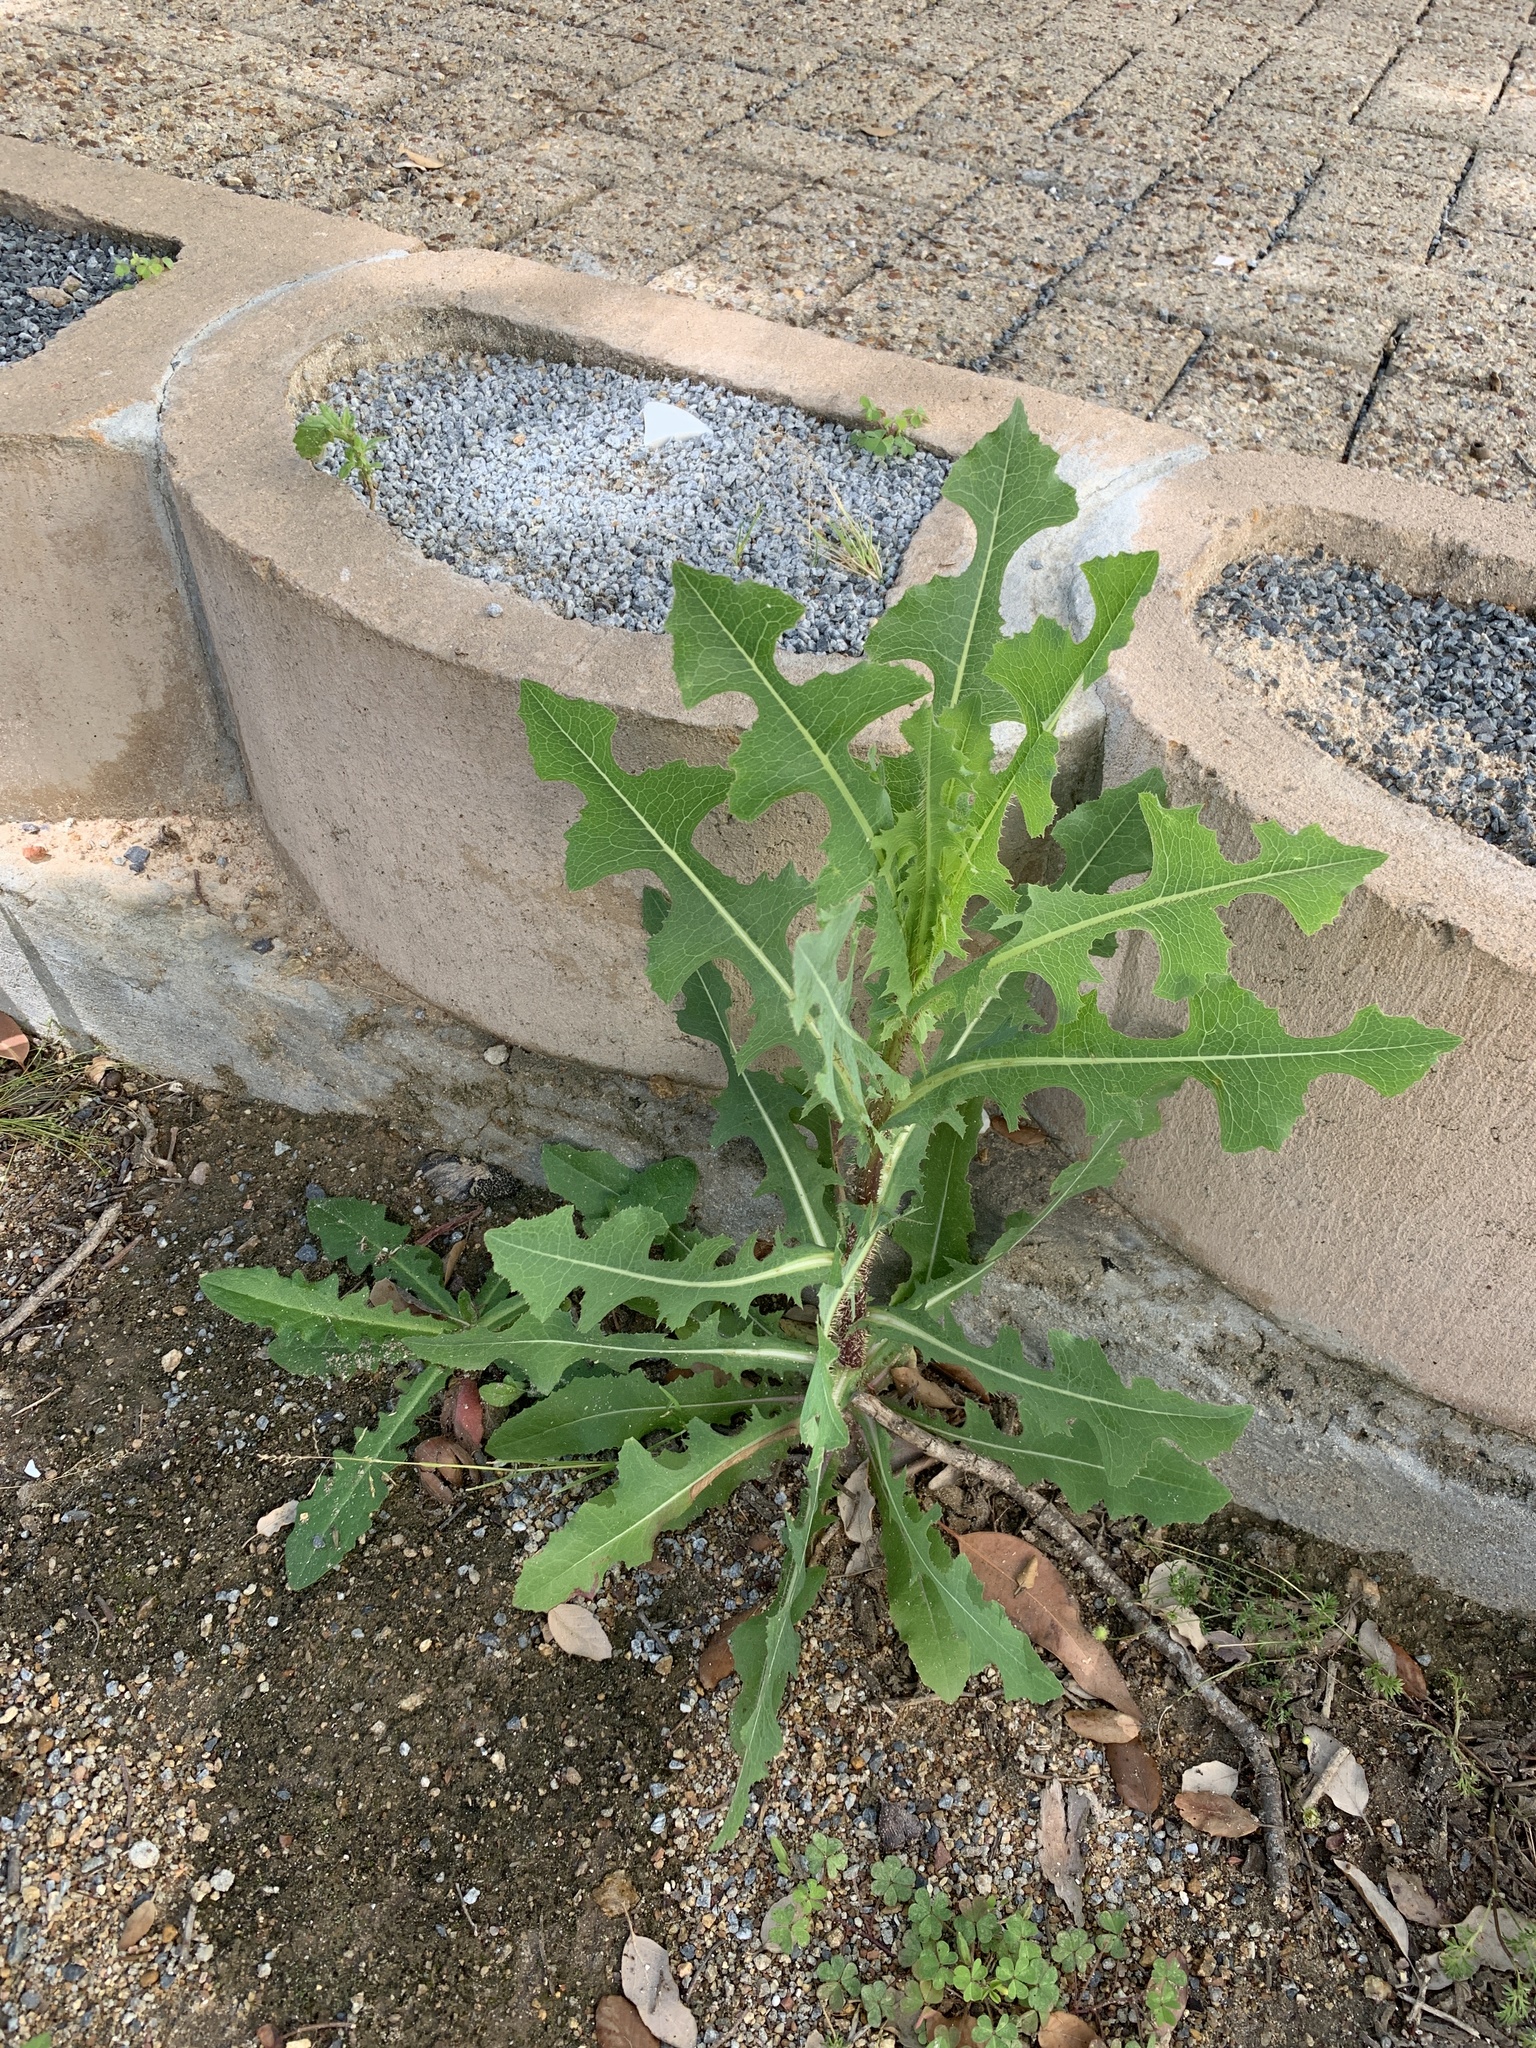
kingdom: Plantae
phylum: Tracheophyta
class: Magnoliopsida
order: Asterales
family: Asteraceae
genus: Lactuca
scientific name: Lactuca serriola
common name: Prickly lettuce
